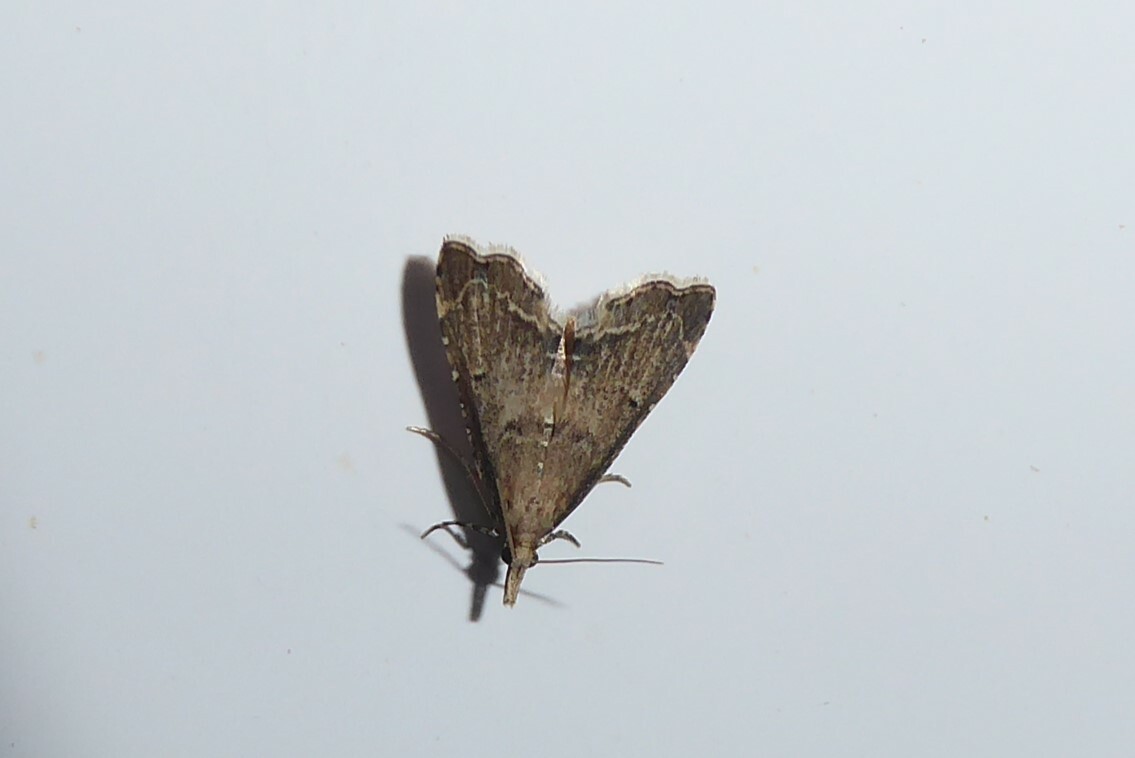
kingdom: Animalia
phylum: Arthropoda
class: Insecta
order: Lepidoptera
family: Crambidae
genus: Diplopseustis
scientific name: Diplopseustis perieresalis
